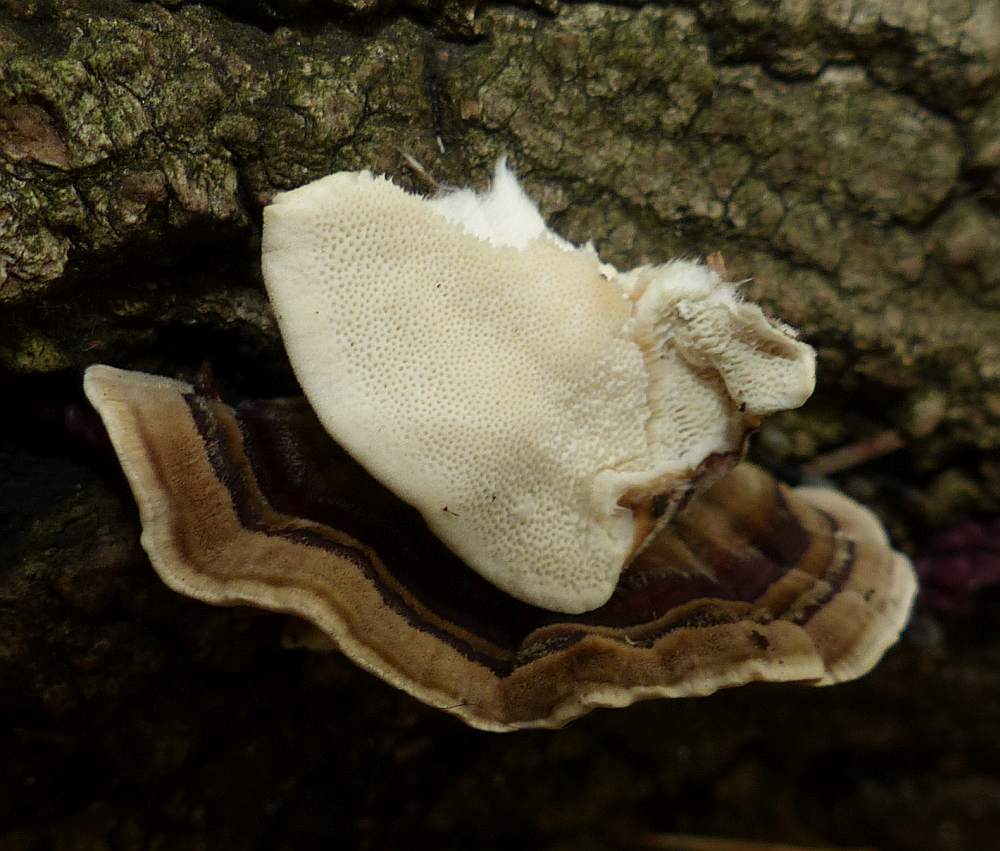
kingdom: Fungi
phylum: Basidiomycota
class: Agaricomycetes
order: Polyporales
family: Polyporaceae
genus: Trametes
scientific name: Trametes versicolor
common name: Turkeytail
